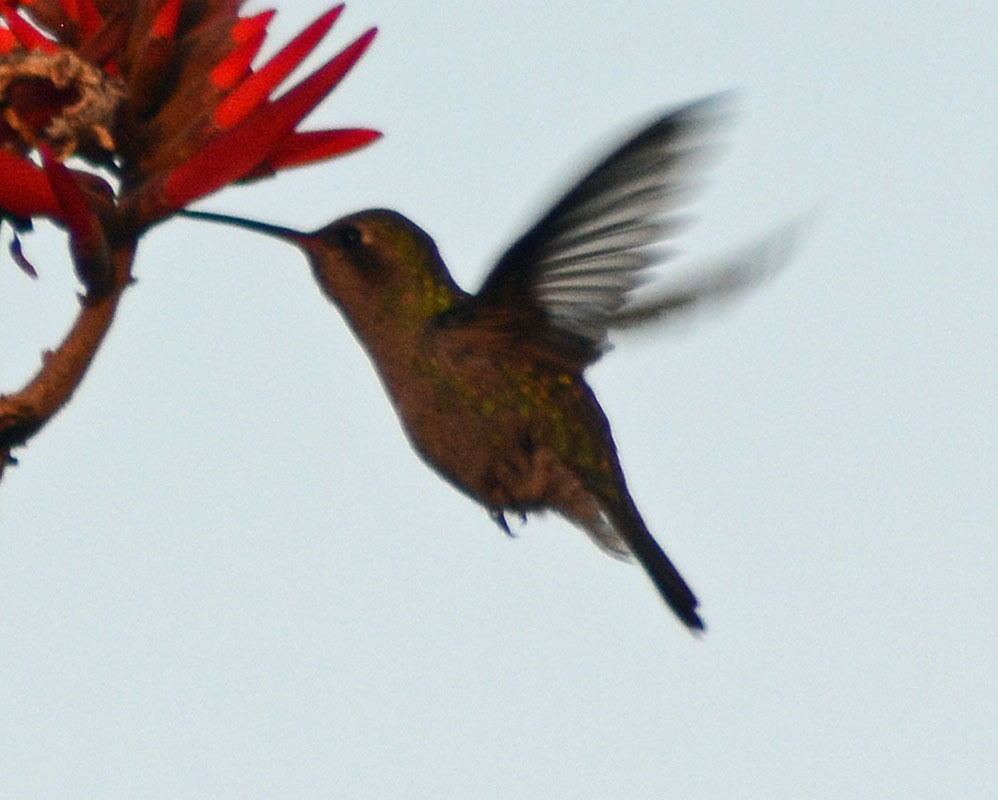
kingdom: Animalia
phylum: Chordata
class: Aves
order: Apodiformes
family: Trochilidae
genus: Cynanthus
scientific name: Cynanthus latirostris
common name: Broad-billed hummingbird
